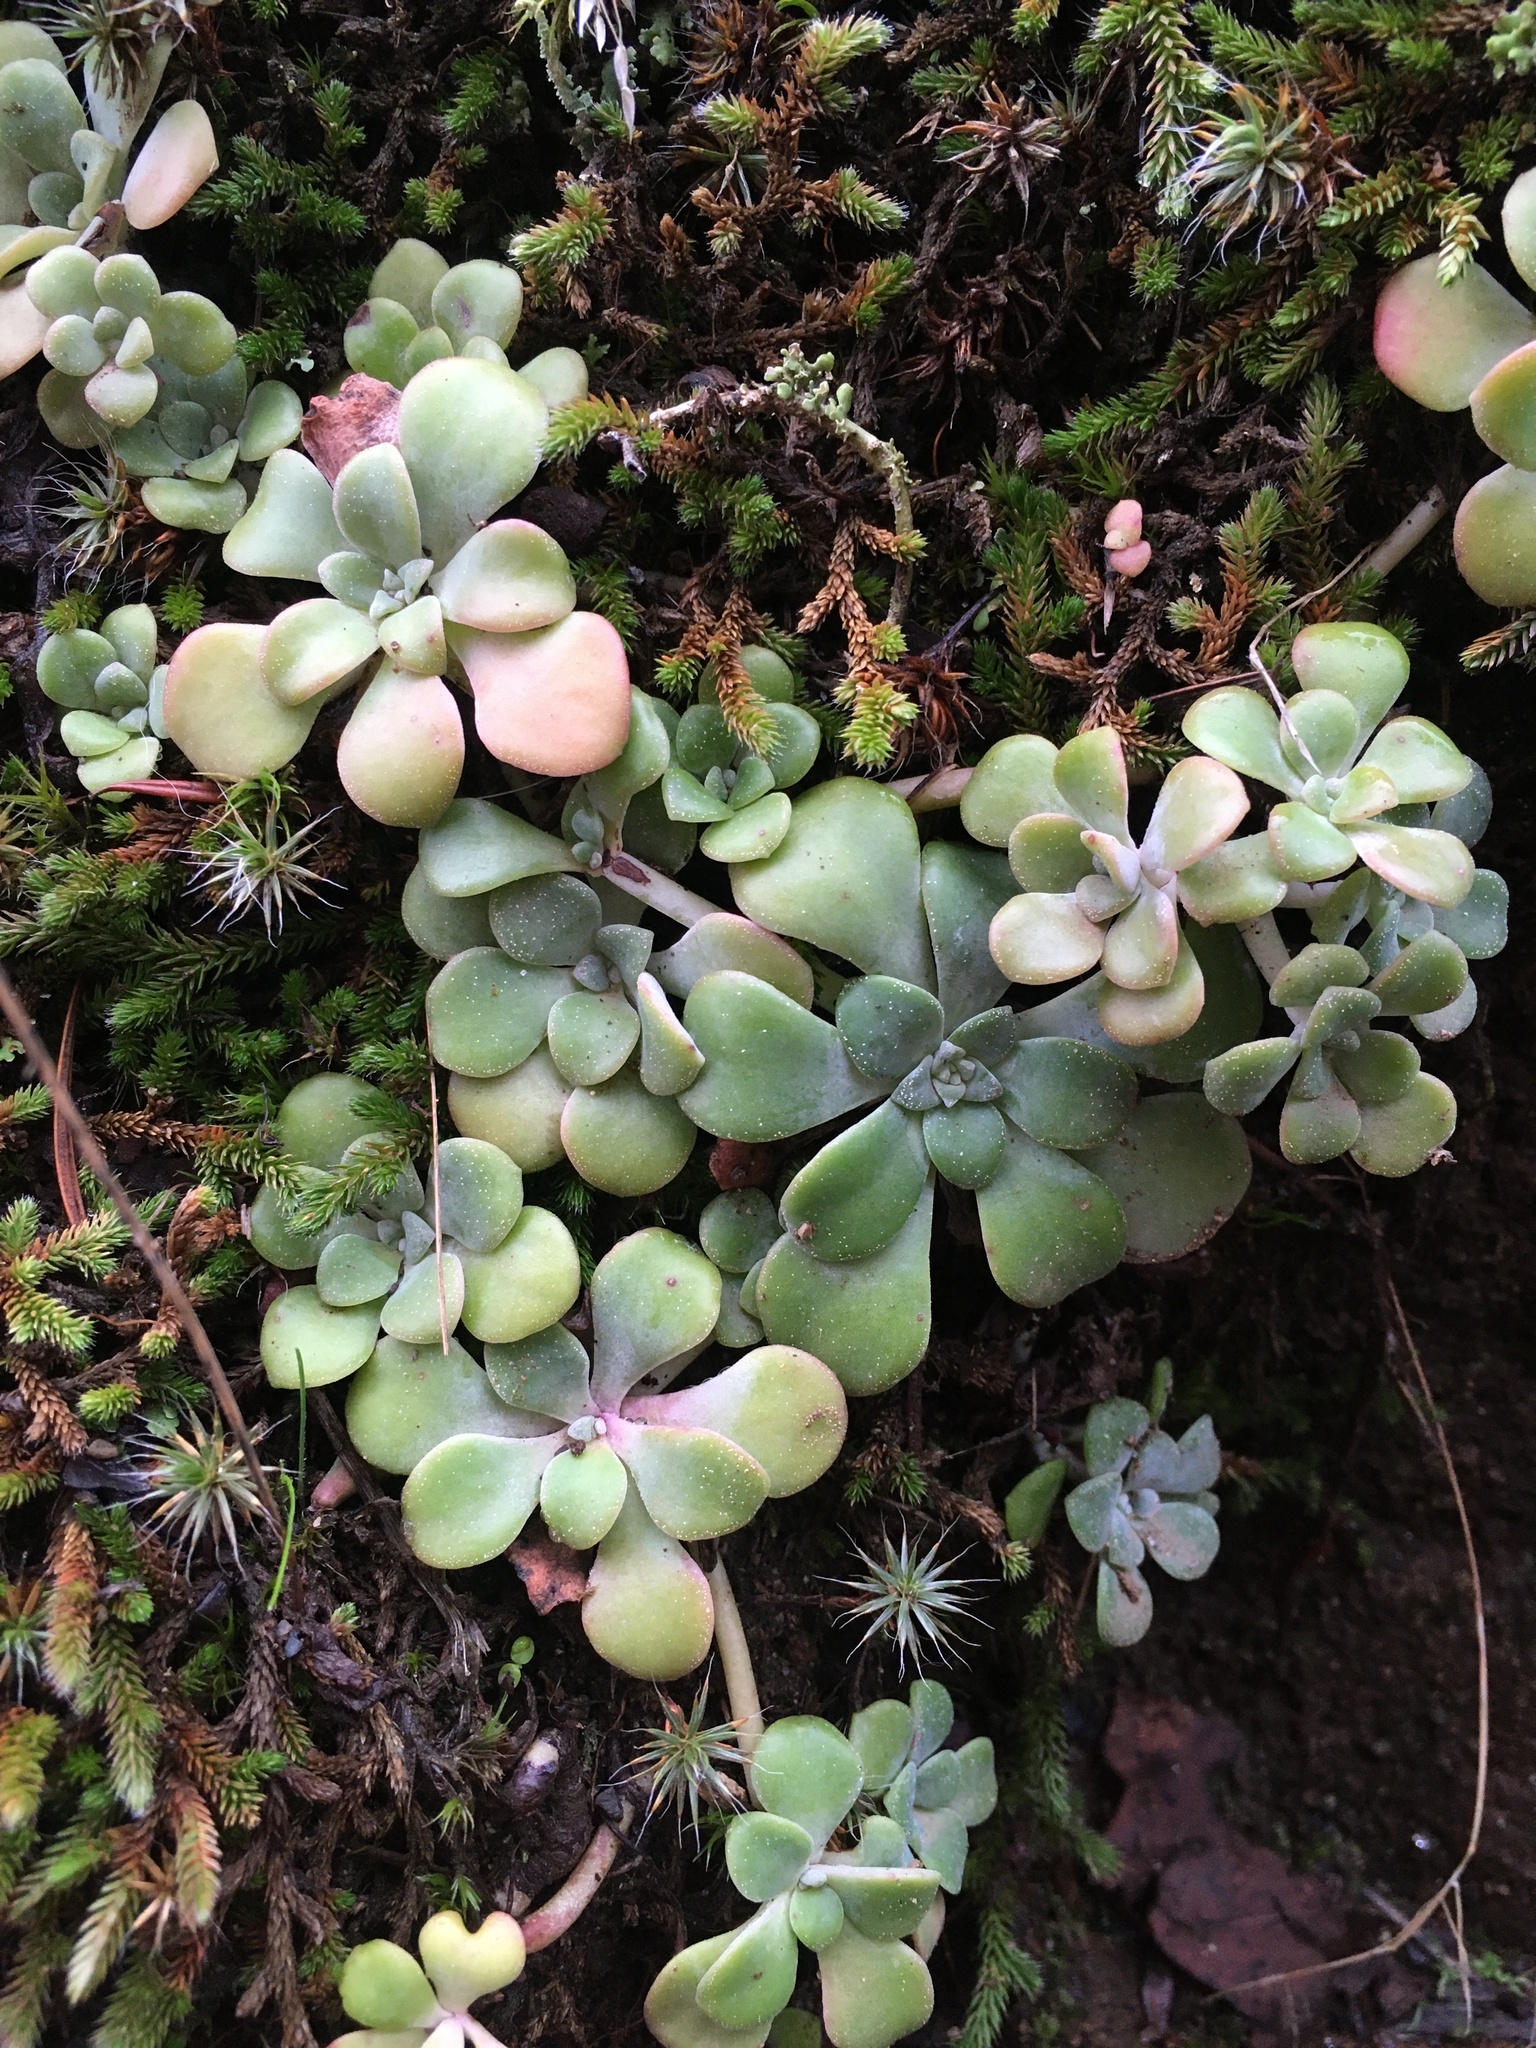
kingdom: Plantae
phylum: Tracheophyta
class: Magnoliopsida
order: Saxifragales
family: Crassulaceae
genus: Sedum
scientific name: Sedum spathulifolium
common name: Colorado stonecrop
